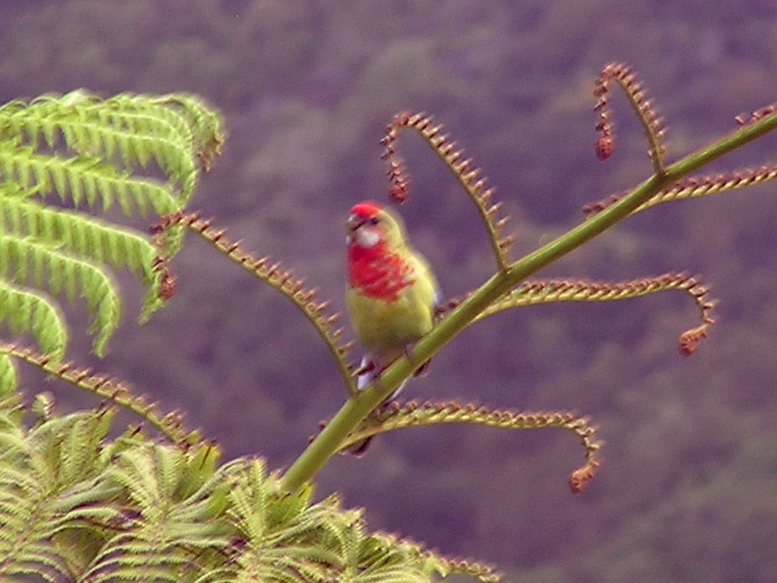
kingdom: Animalia
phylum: Chordata
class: Aves
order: Psittaciformes
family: Psittacidae
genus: Platycercus
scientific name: Platycercus eximius
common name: Eastern rosella
